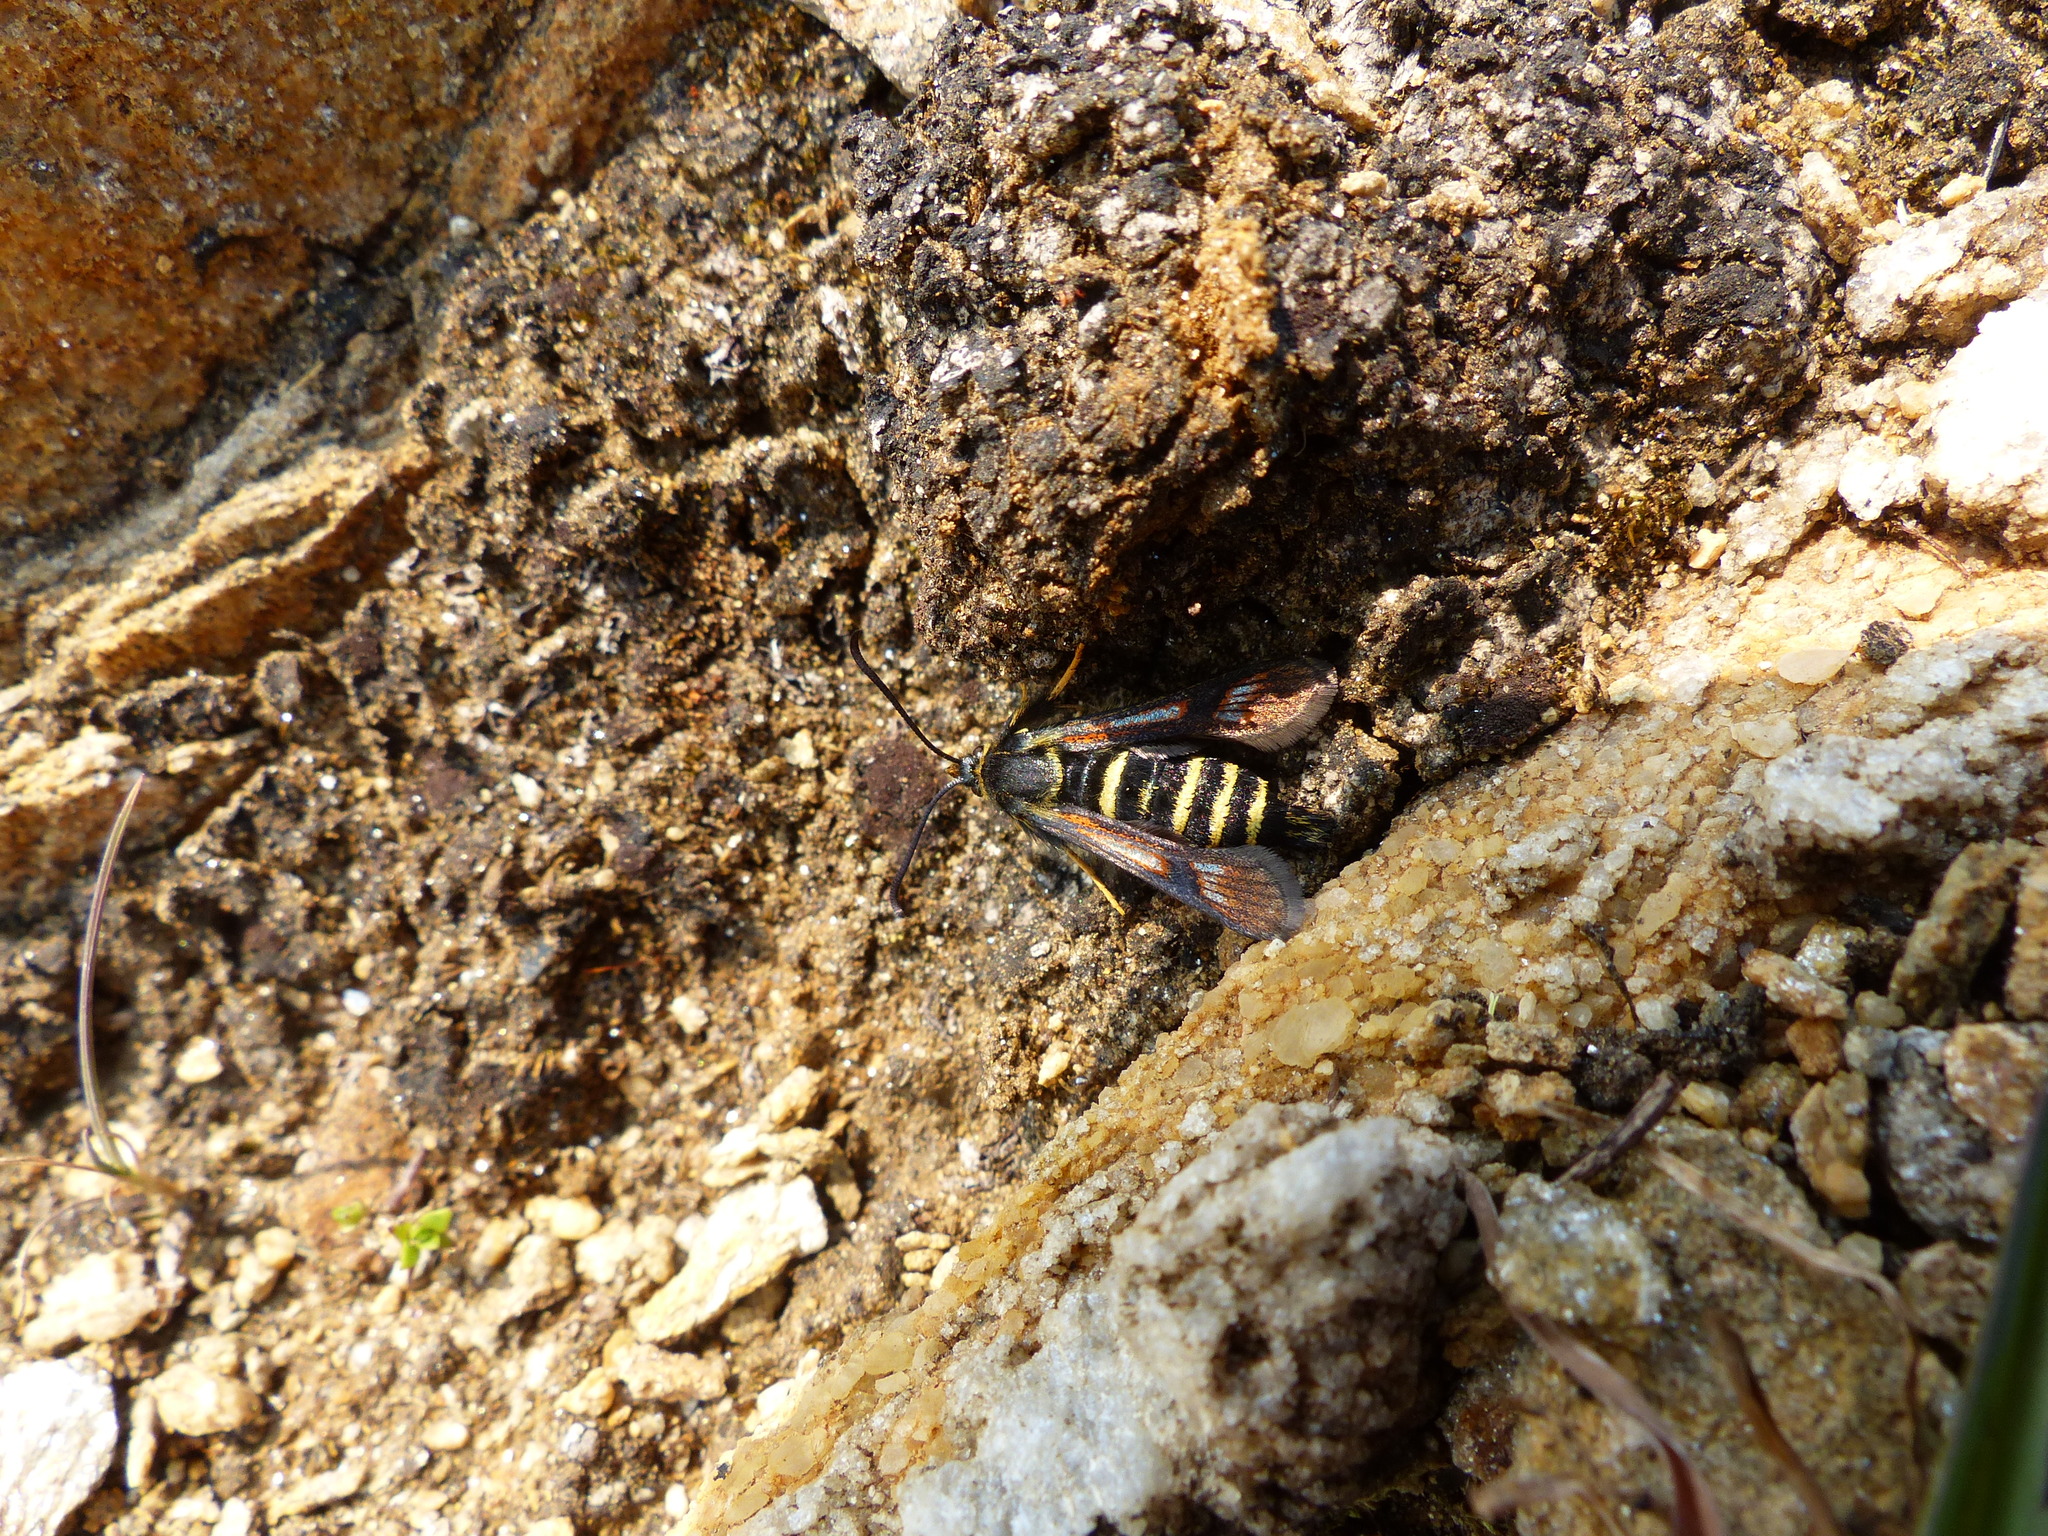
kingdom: Animalia
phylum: Arthropoda
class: Insecta
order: Lepidoptera
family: Sesiidae
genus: Albuna
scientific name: Albuna pyramidalis
